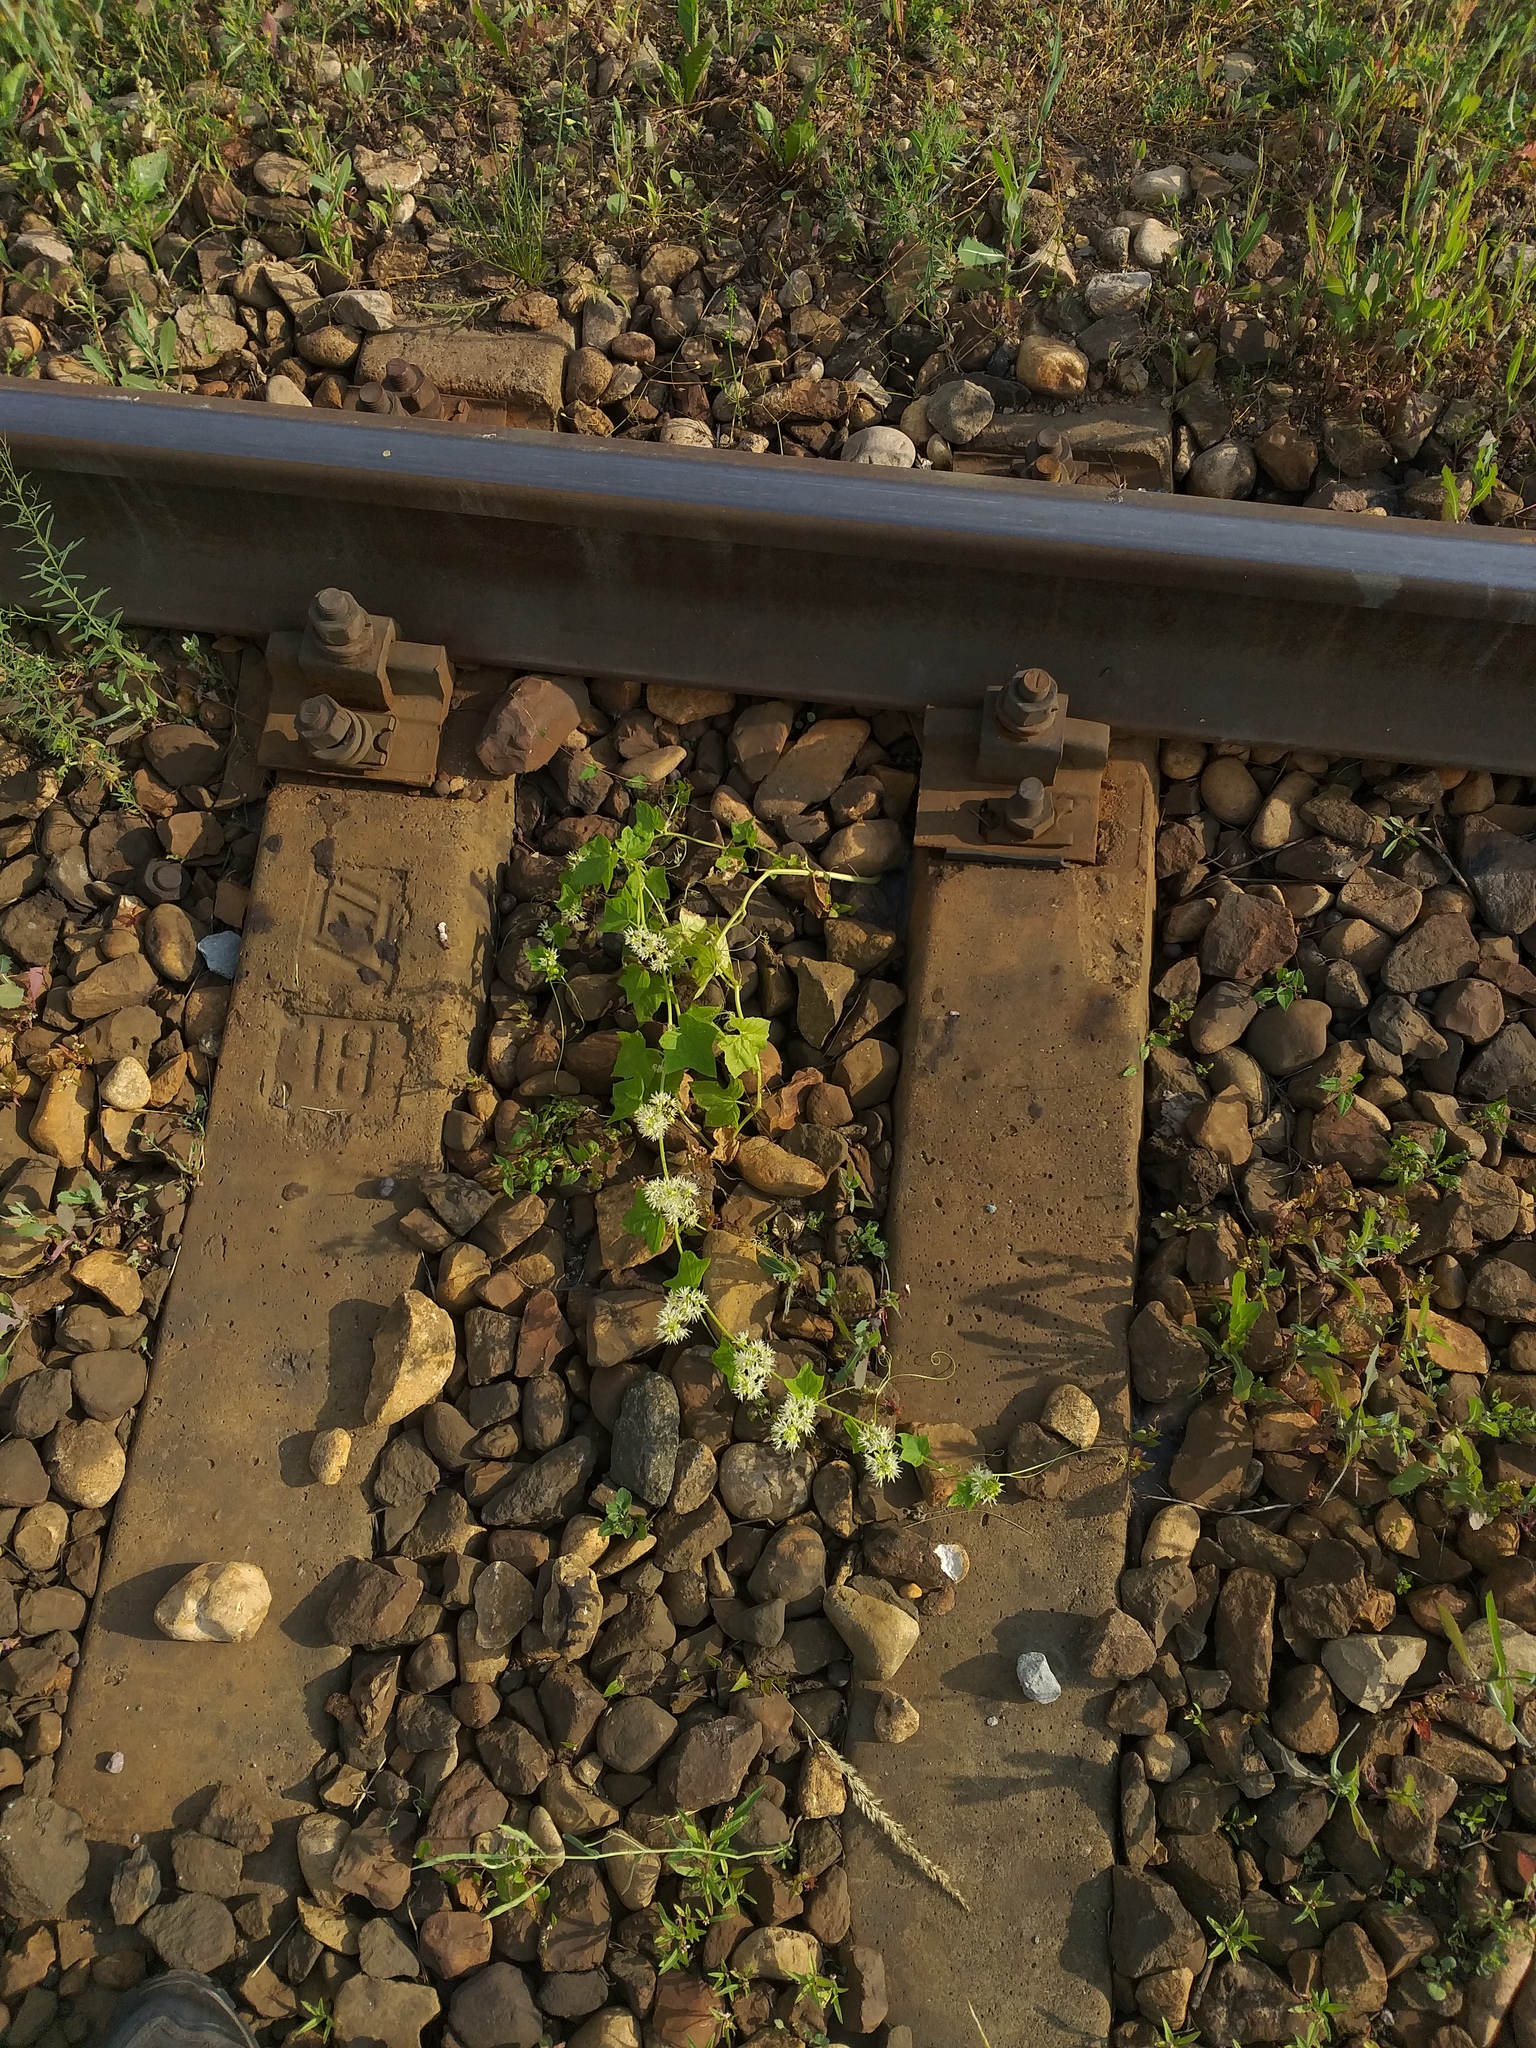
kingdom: Plantae
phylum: Tracheophyta
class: Magnoliopsida
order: Cucurbitales
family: Cucurbitaceae
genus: Echinocystis
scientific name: Echinocystis lobata
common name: Wild cucumber
